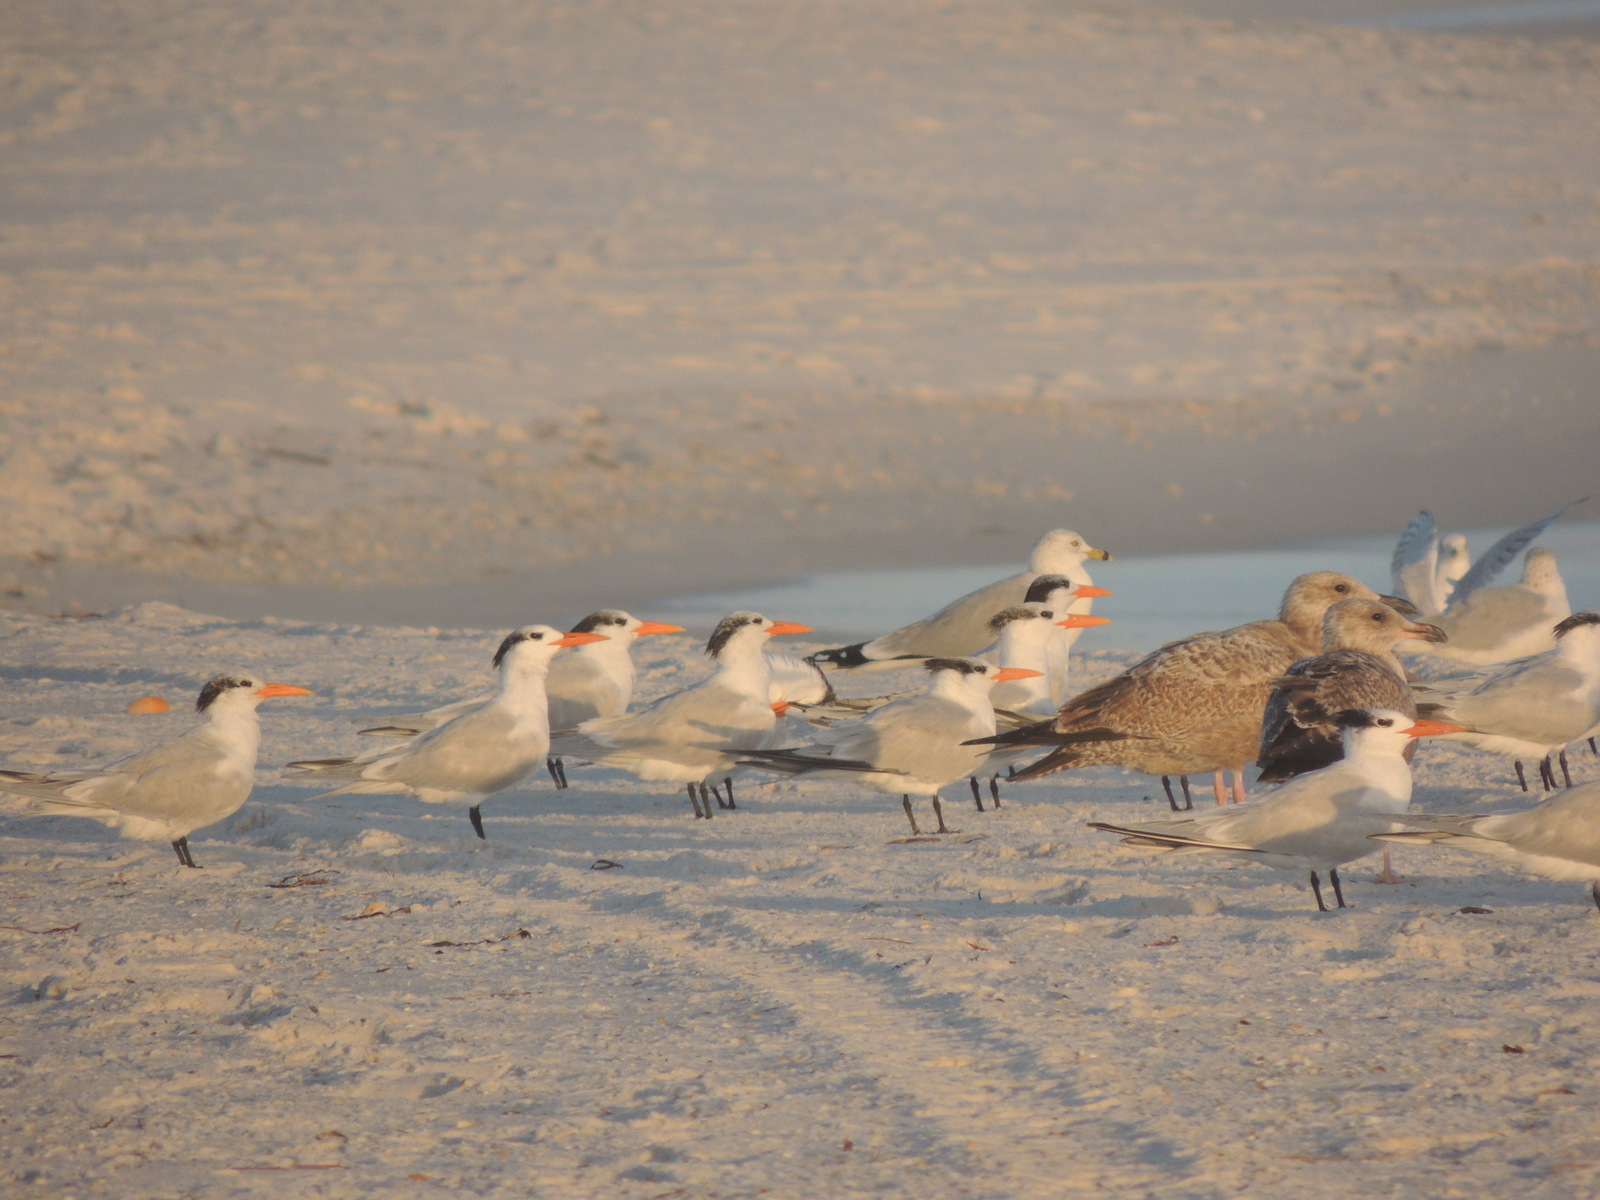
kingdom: Animalia
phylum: Chordata
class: Aves
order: Charadriiformes
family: Laridae
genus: Thalasseus
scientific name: Thalasseus maximus
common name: Royal tern
